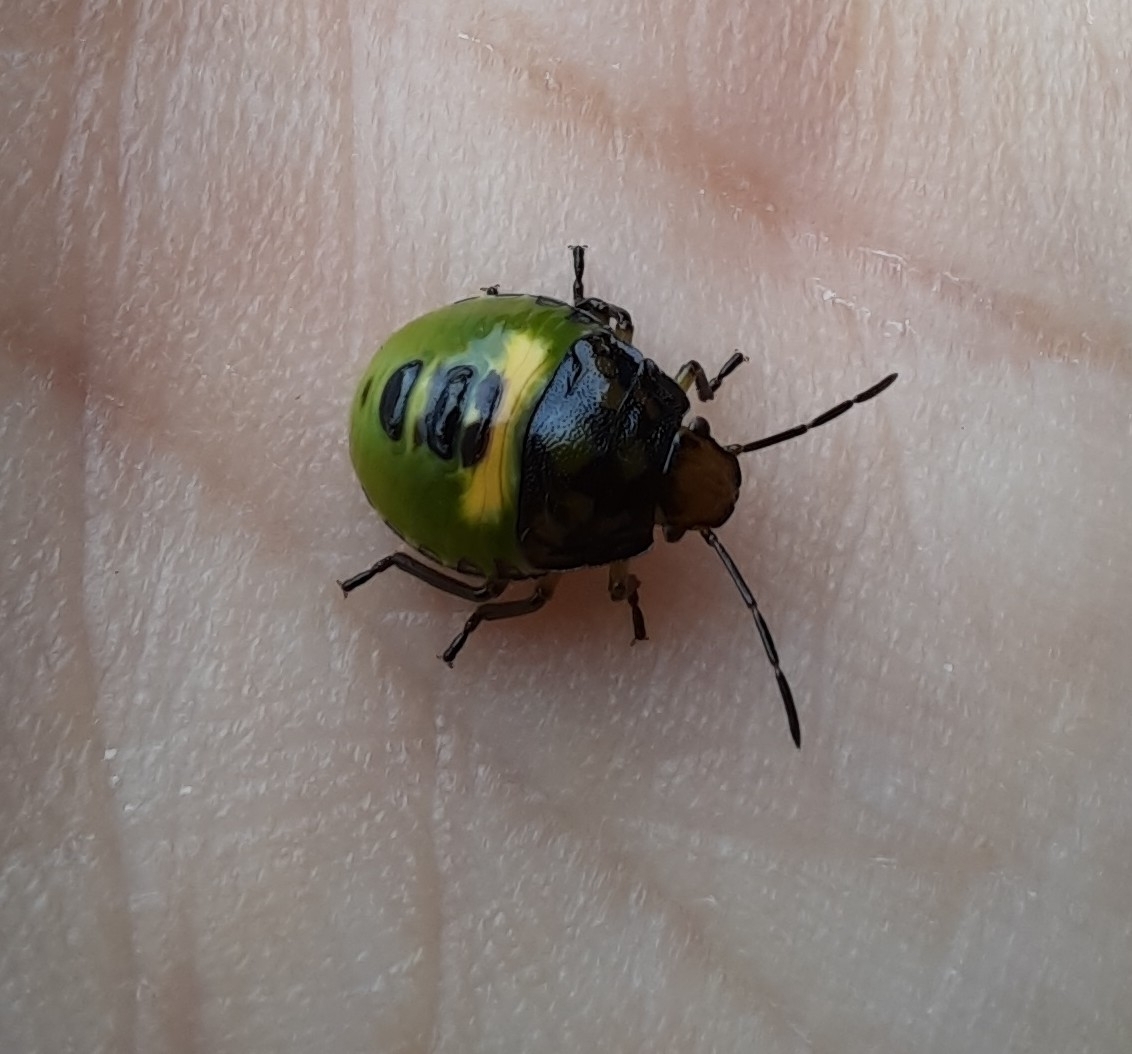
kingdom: Animalia
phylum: Arthropoda
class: Insecta
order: Hemiptera
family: Pentatomidae
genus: Glaucias
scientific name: Glaucias amyota
